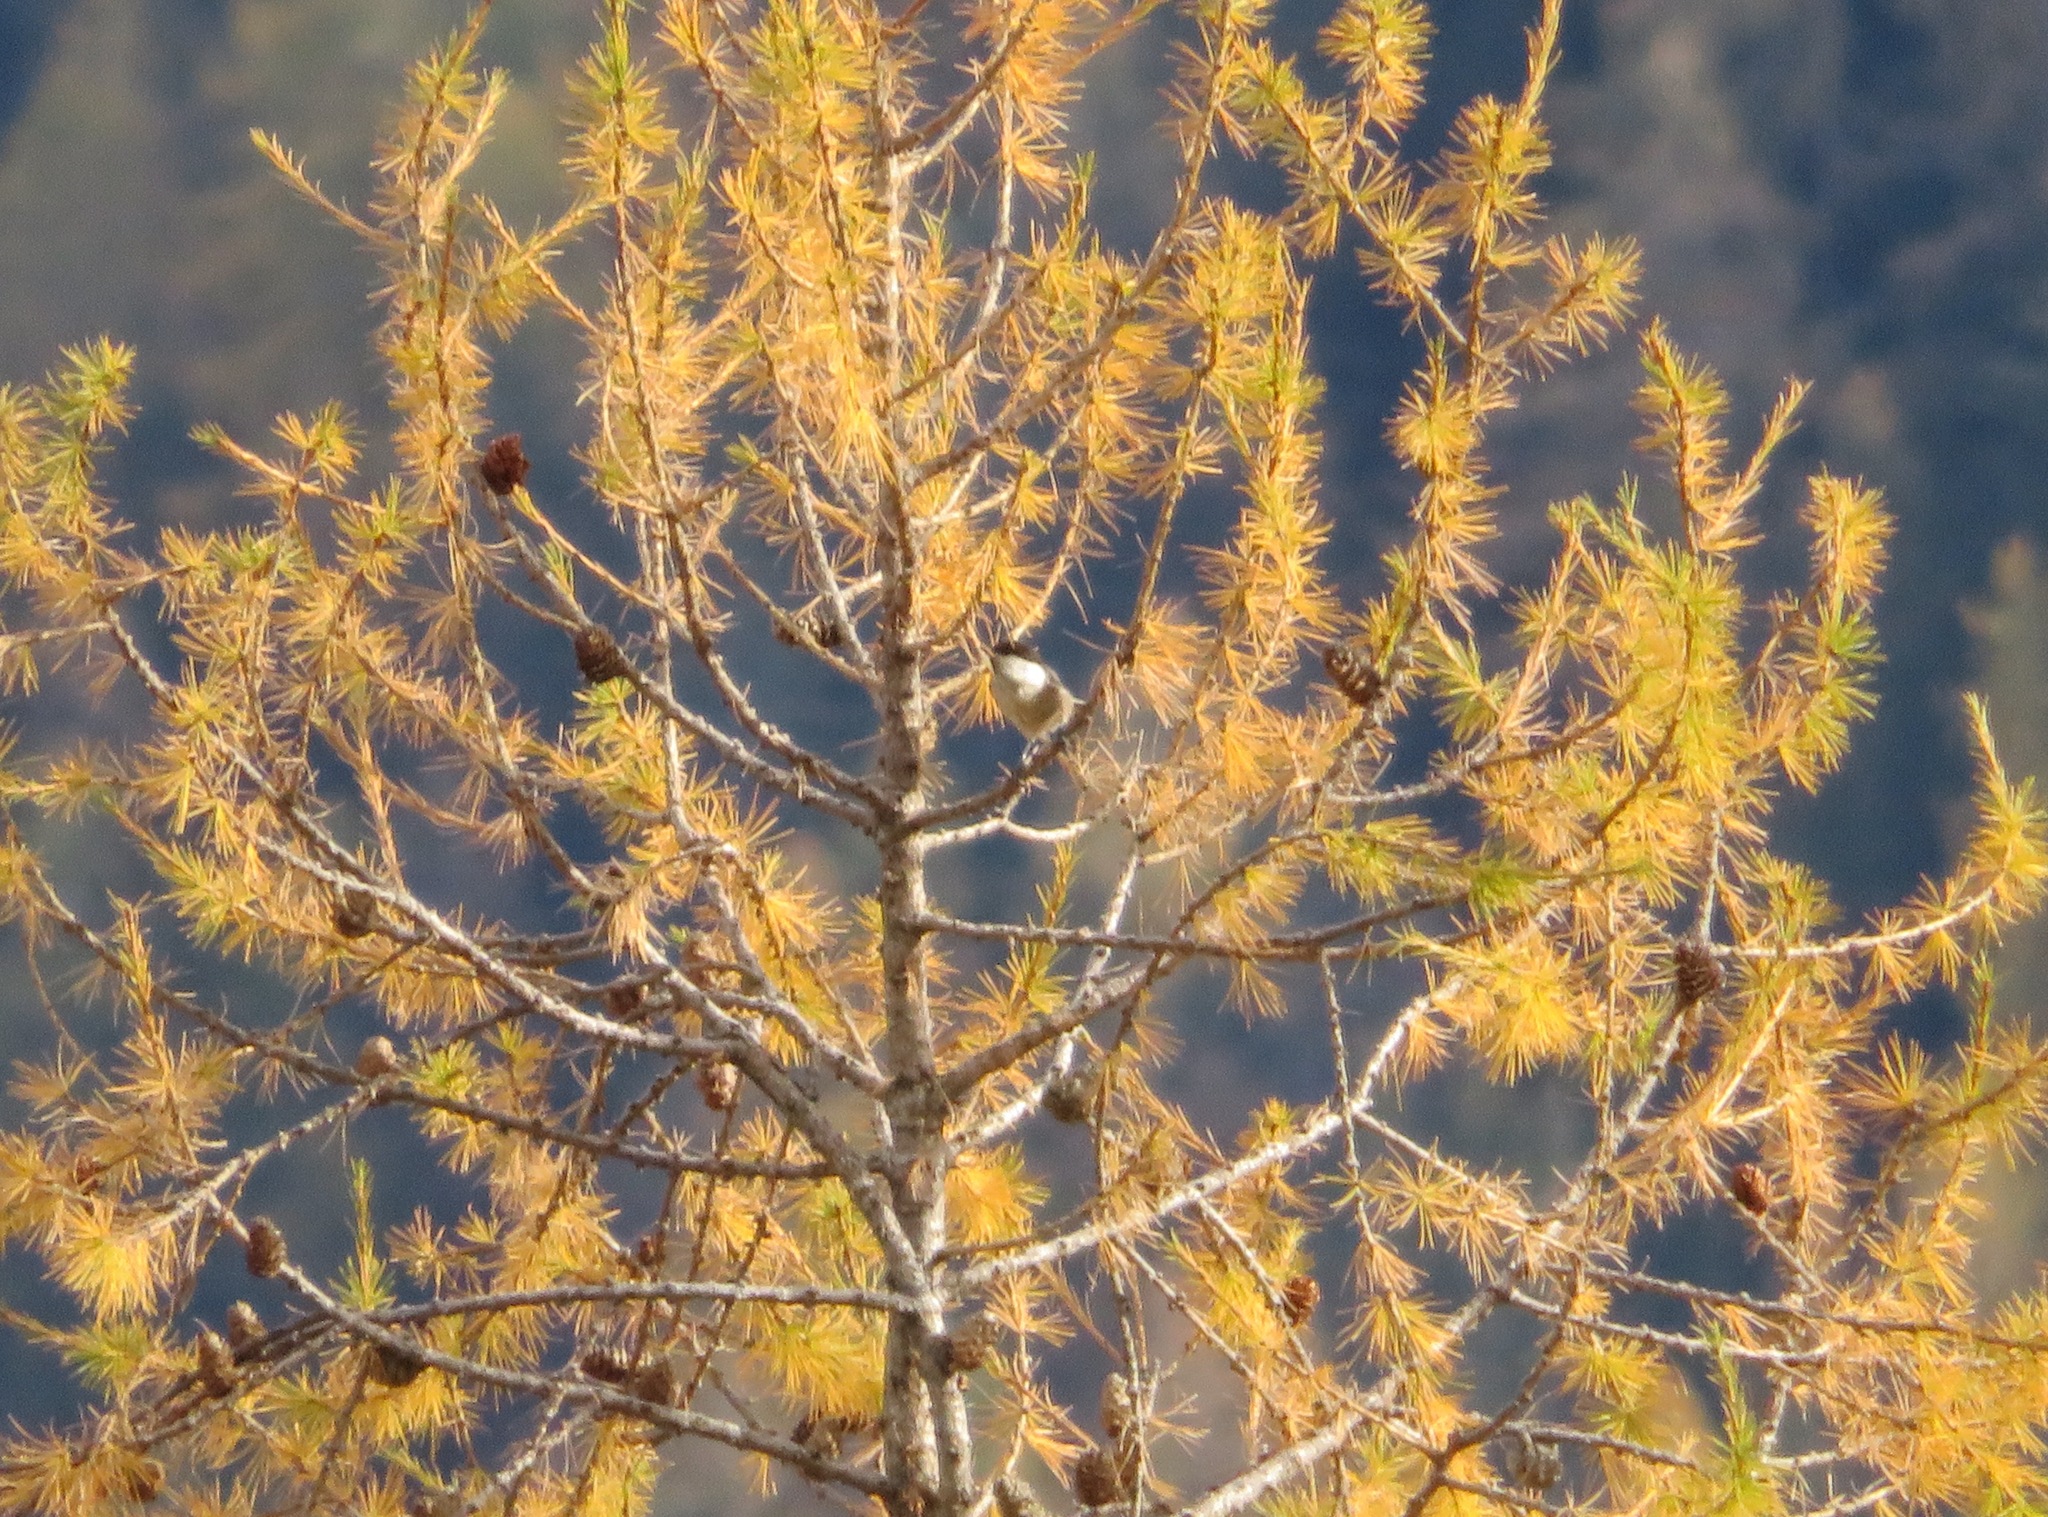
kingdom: Animalia
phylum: Chordata
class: Aves
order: Passeriformes
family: Paridae
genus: Poecile
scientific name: Poecile montanus
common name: Willow tit
